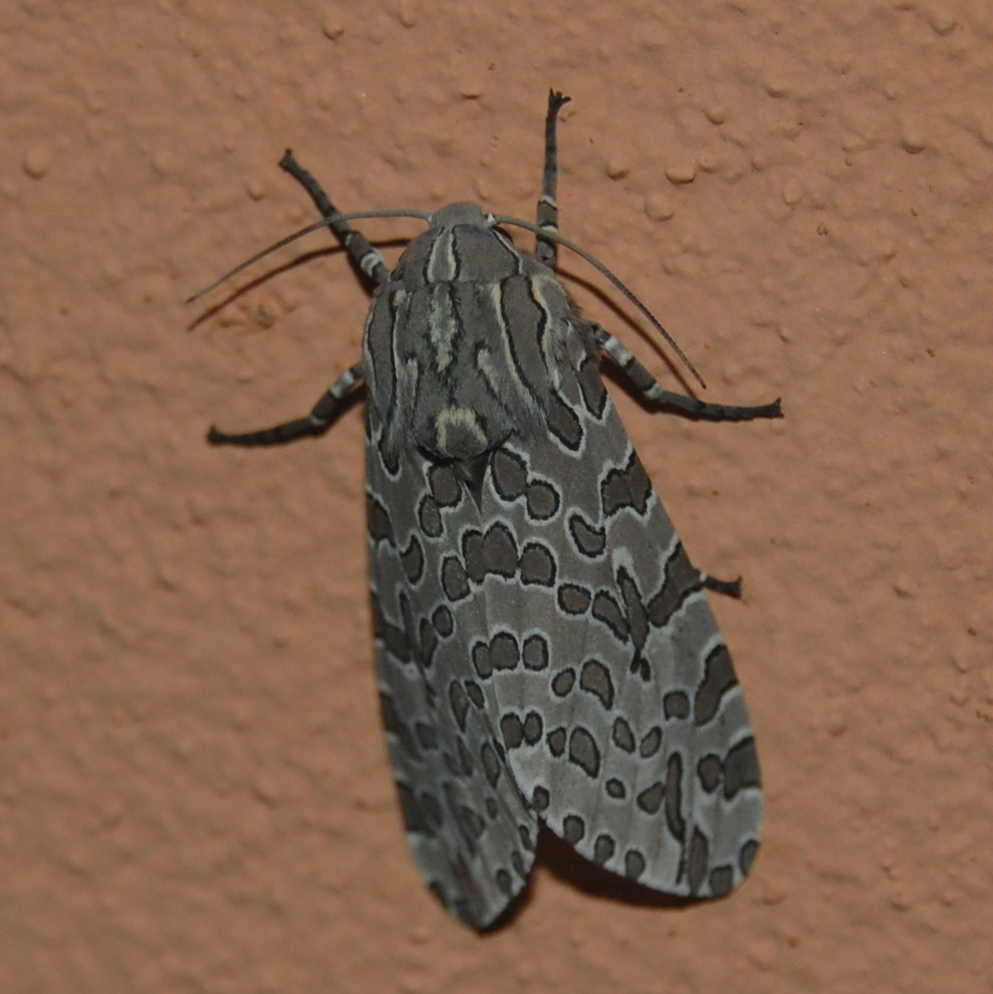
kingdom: Animalia
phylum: Arthropoda
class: Insecta
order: Lepidoptera
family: Erebidae
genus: Hypercompe
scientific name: Hypercompe indecisa
